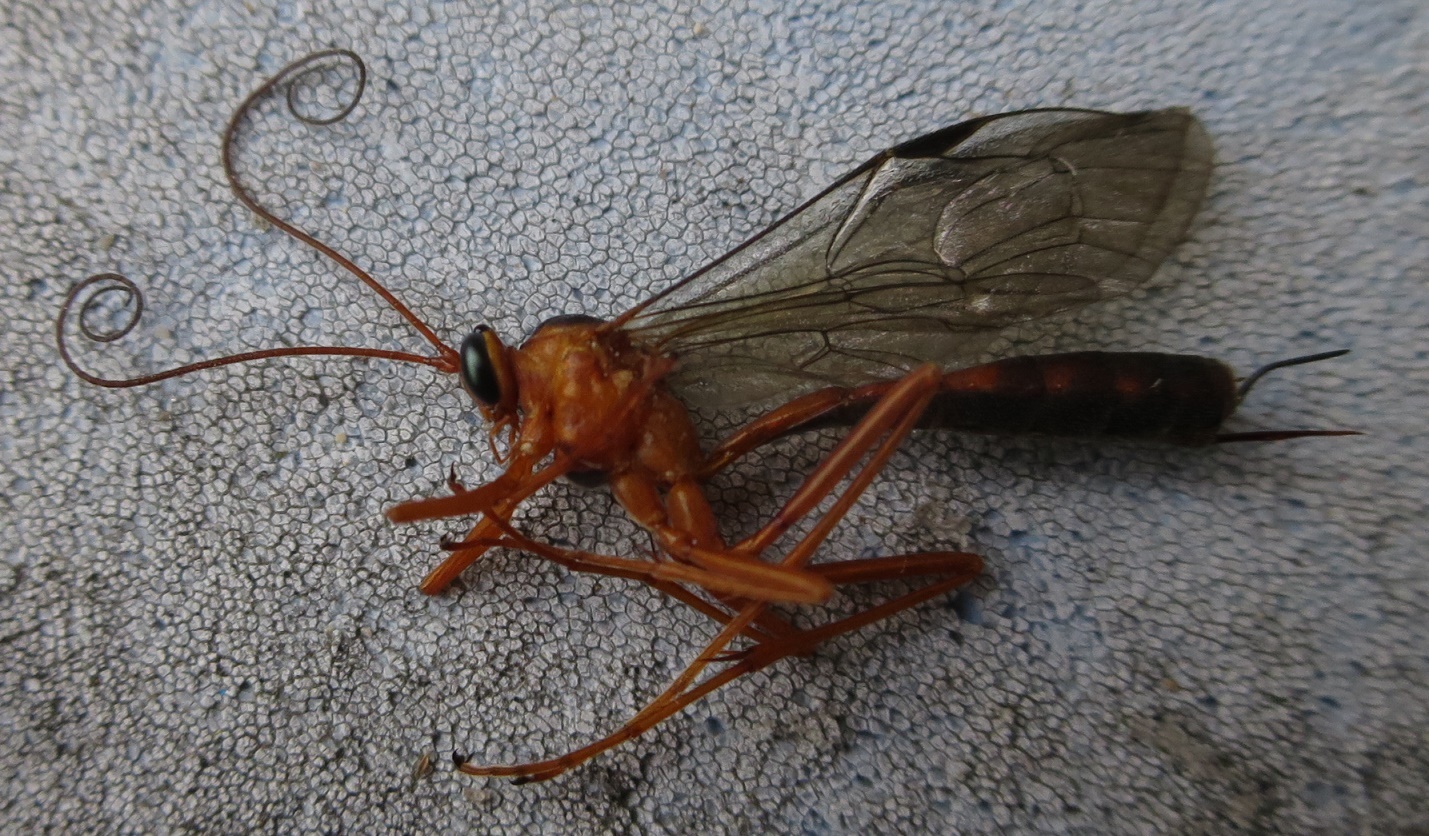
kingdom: Animalia
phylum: Arthropoda
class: Insecta
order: Hymenoptera
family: Ichneumonidae
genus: Netelia
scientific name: Netelia ephippiata
